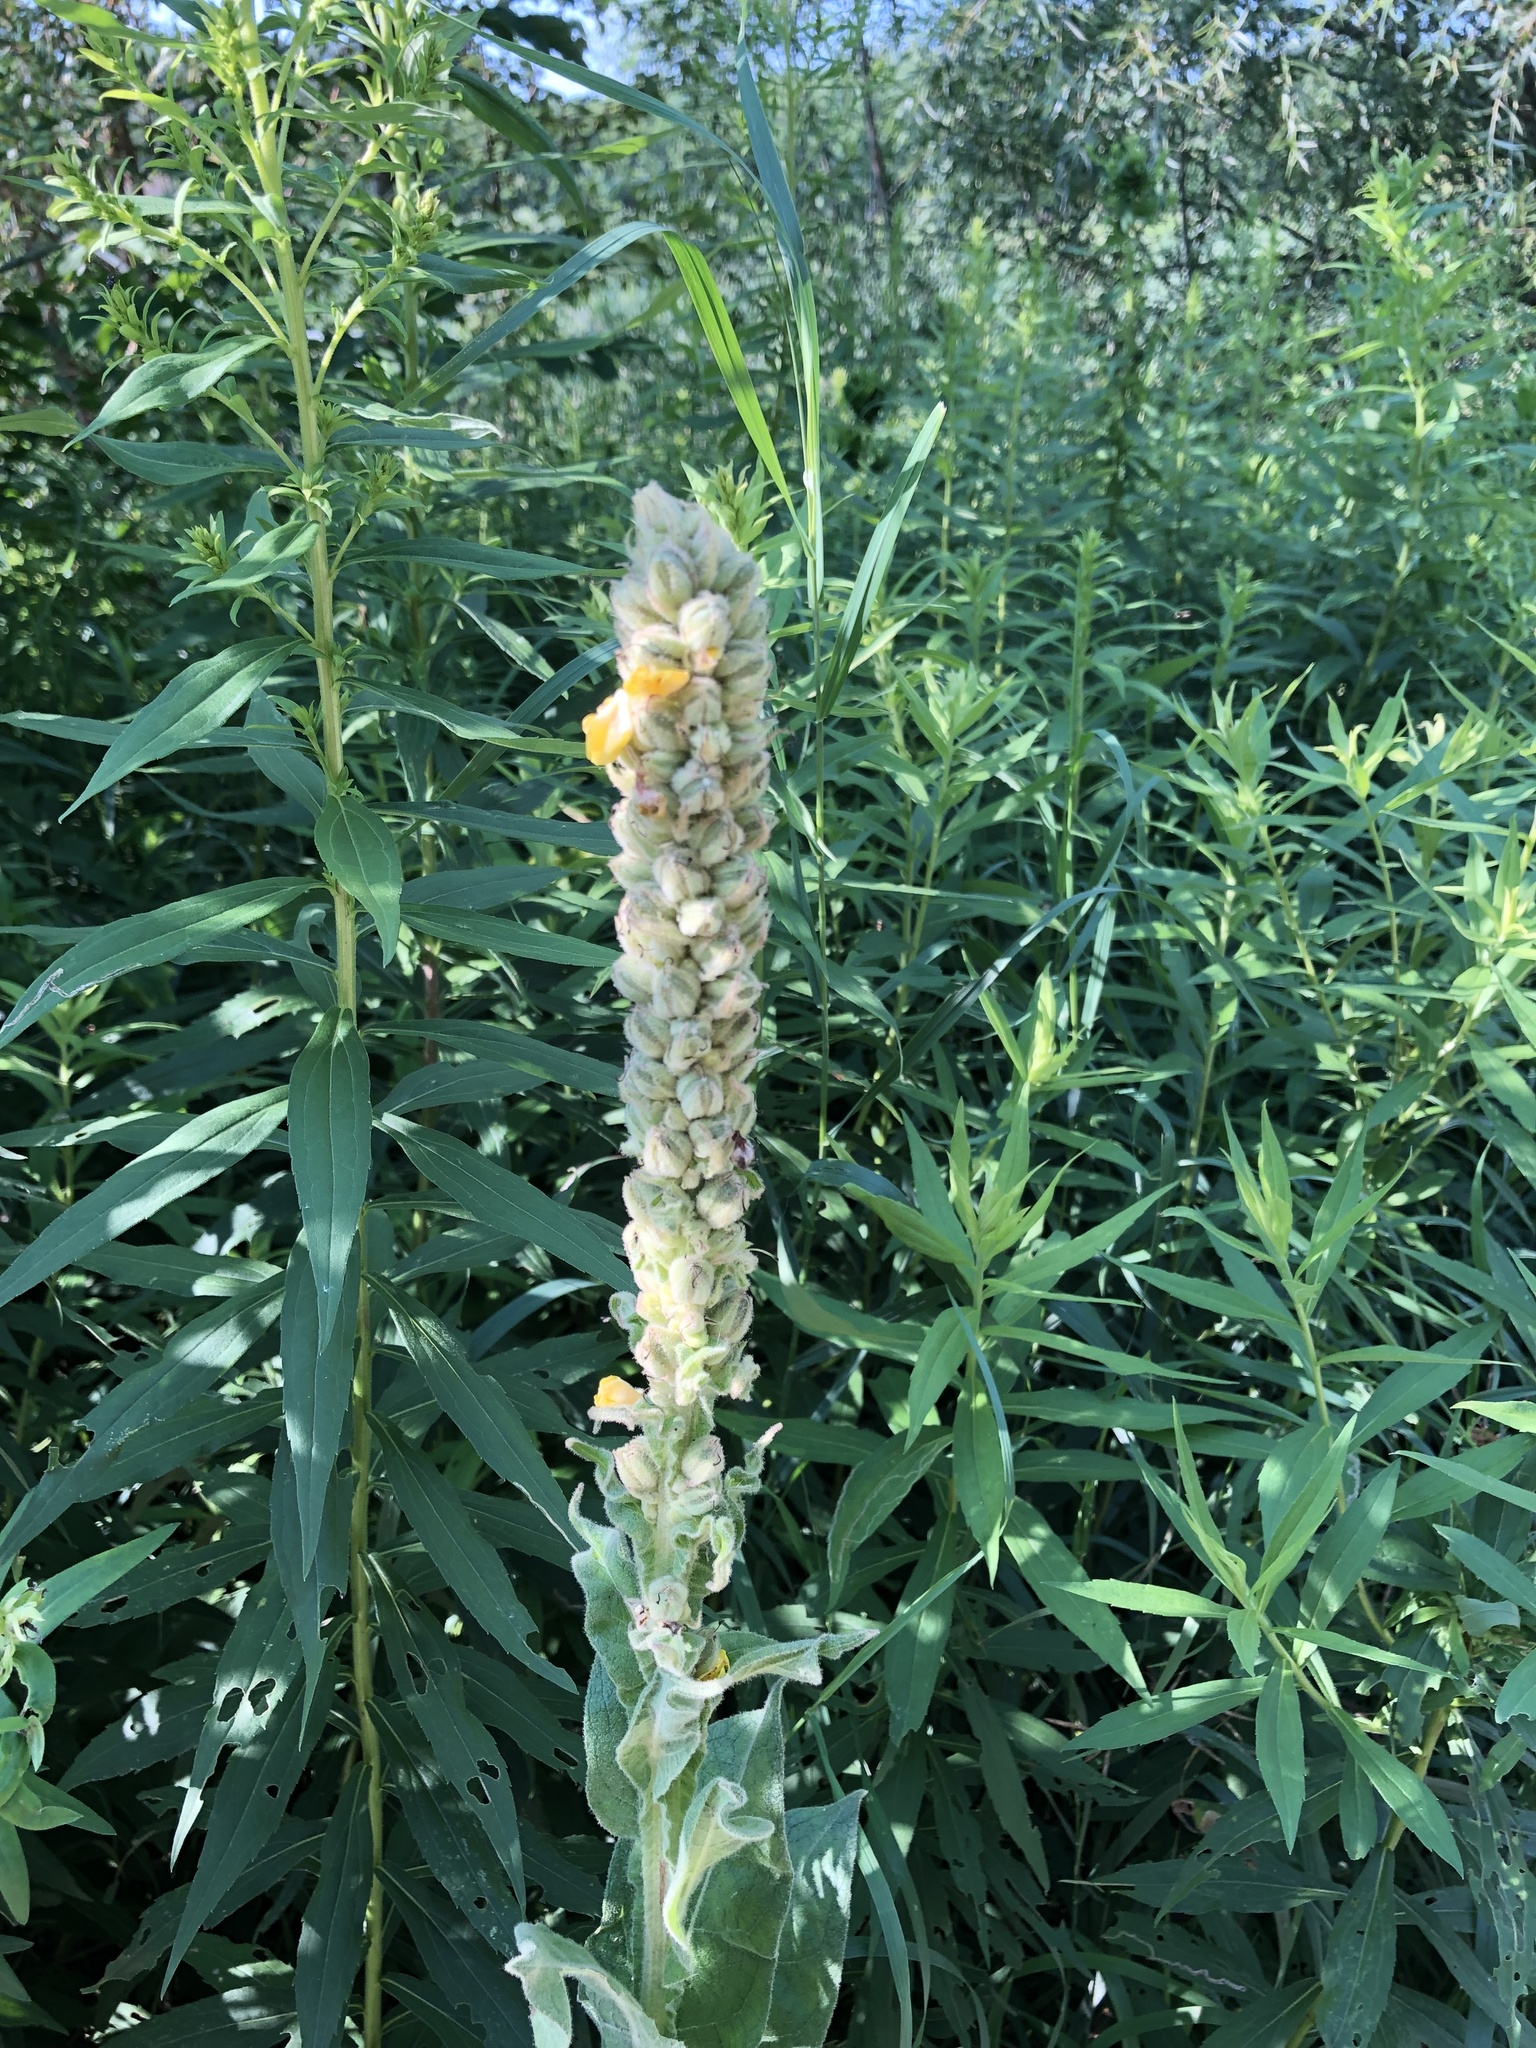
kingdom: Plantae
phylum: Tracheophyta
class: Magnoliopsida
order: Lamiales
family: Scrophulariaceae
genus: Verbascum
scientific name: Verbascum thapsus
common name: Common mullein
